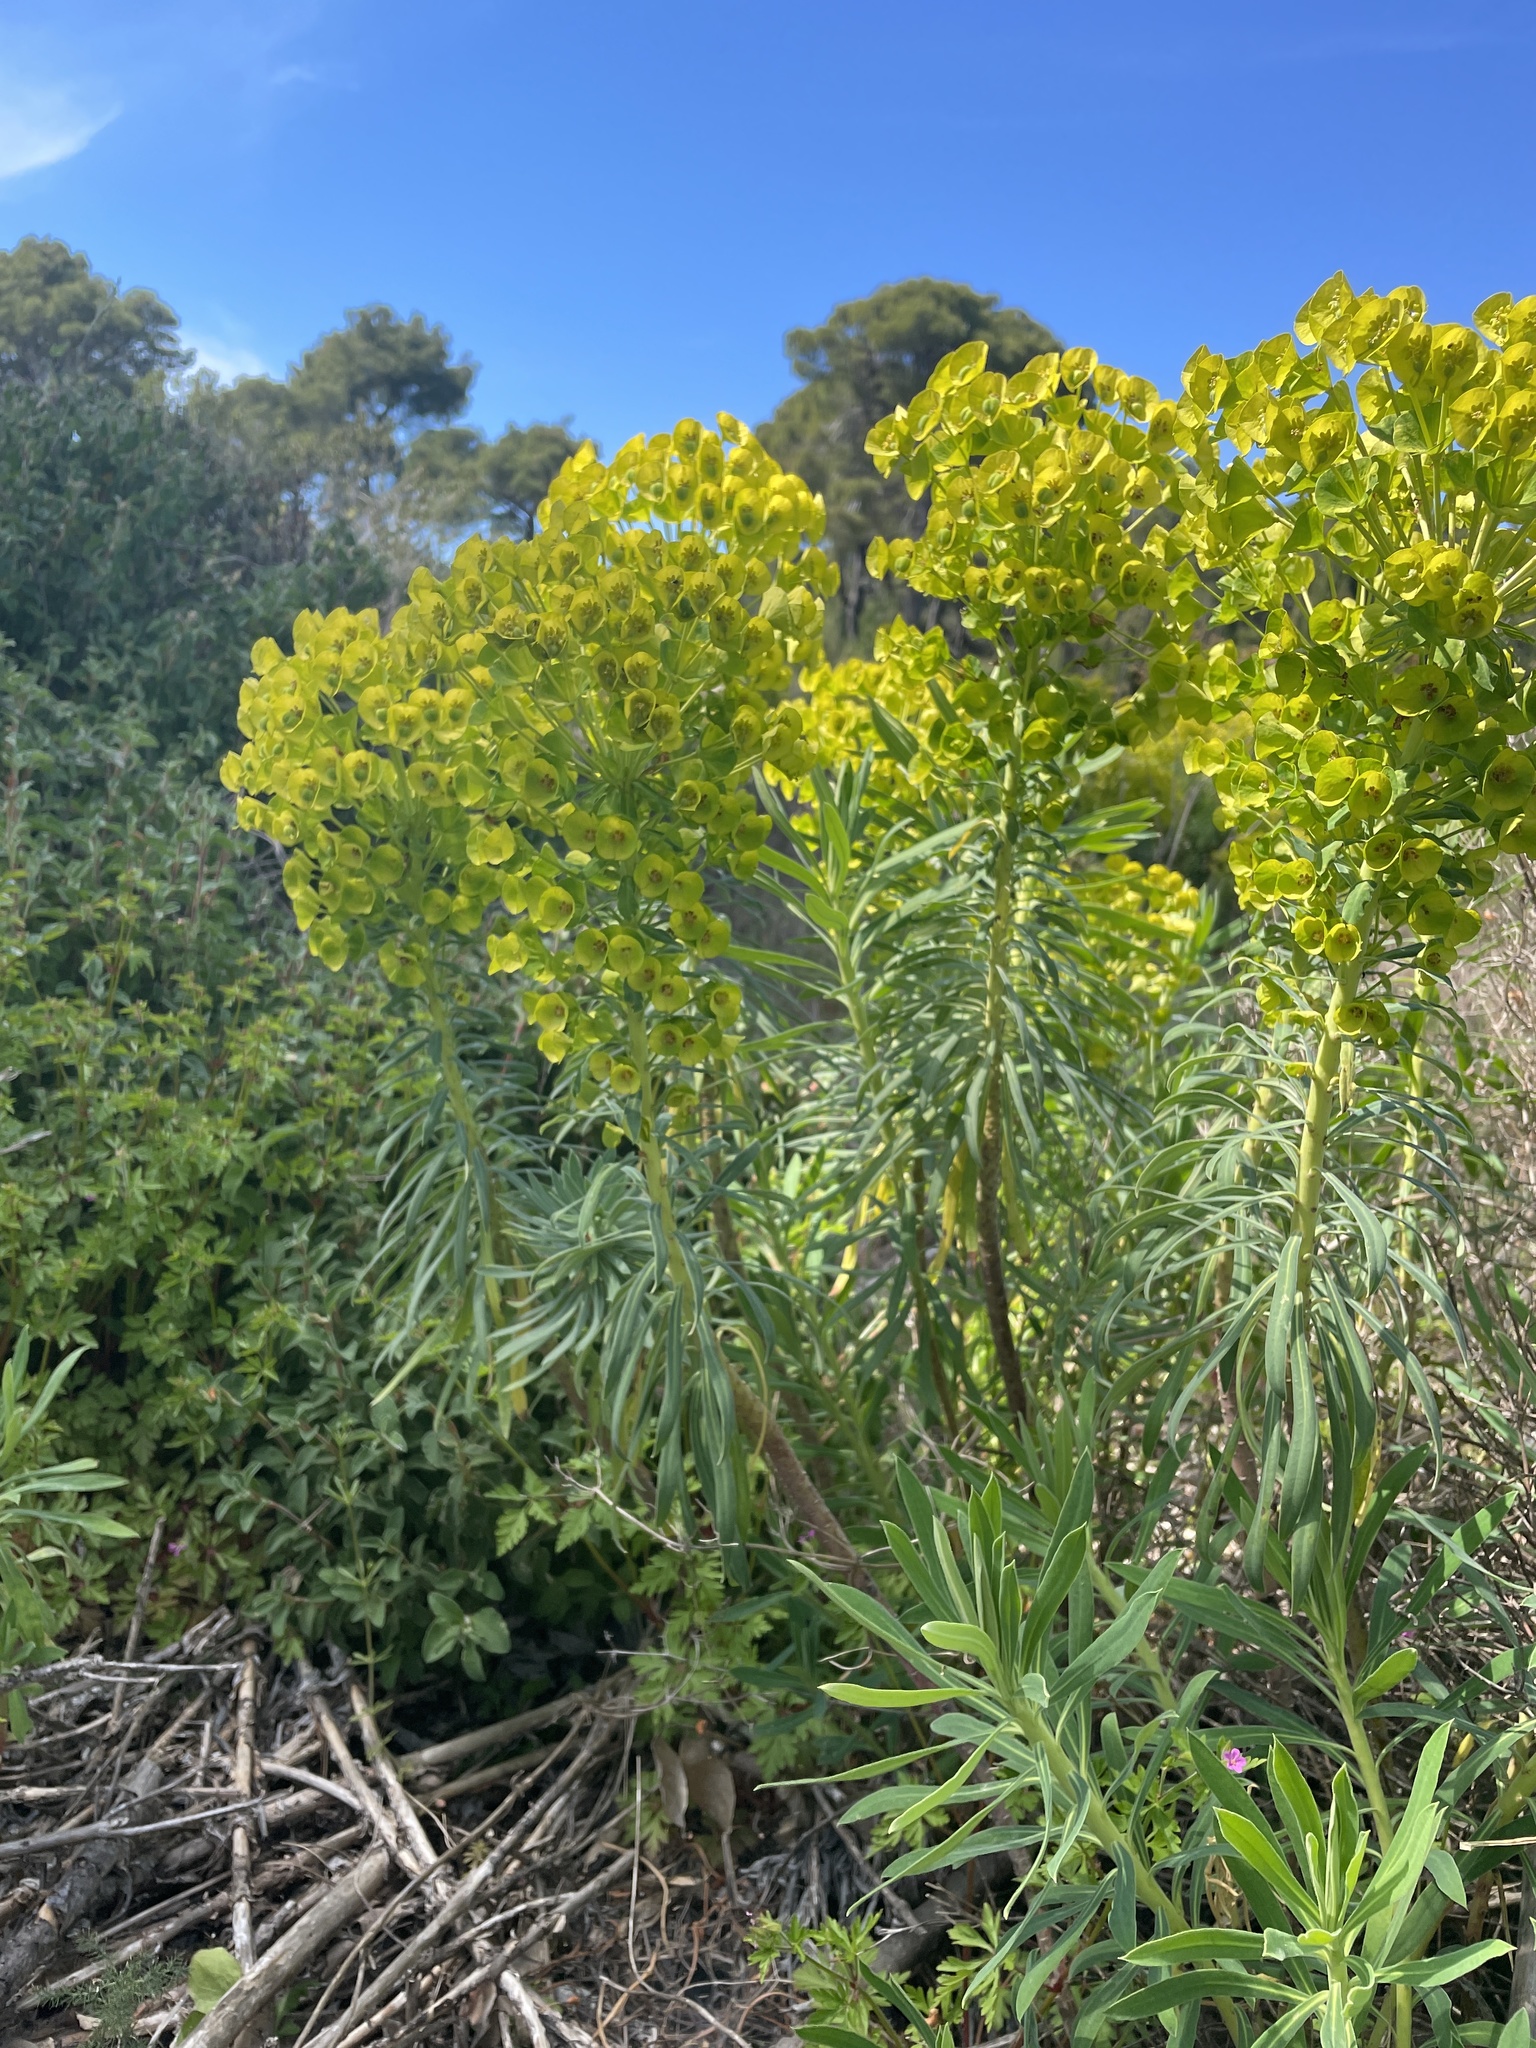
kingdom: Plantae
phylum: Tracheophyta
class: Magnoliopsida
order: Malpighiales
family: Euphorbiaceae
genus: Euphorbia
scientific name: Euphorbia cyparissias
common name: Cypress spurge
